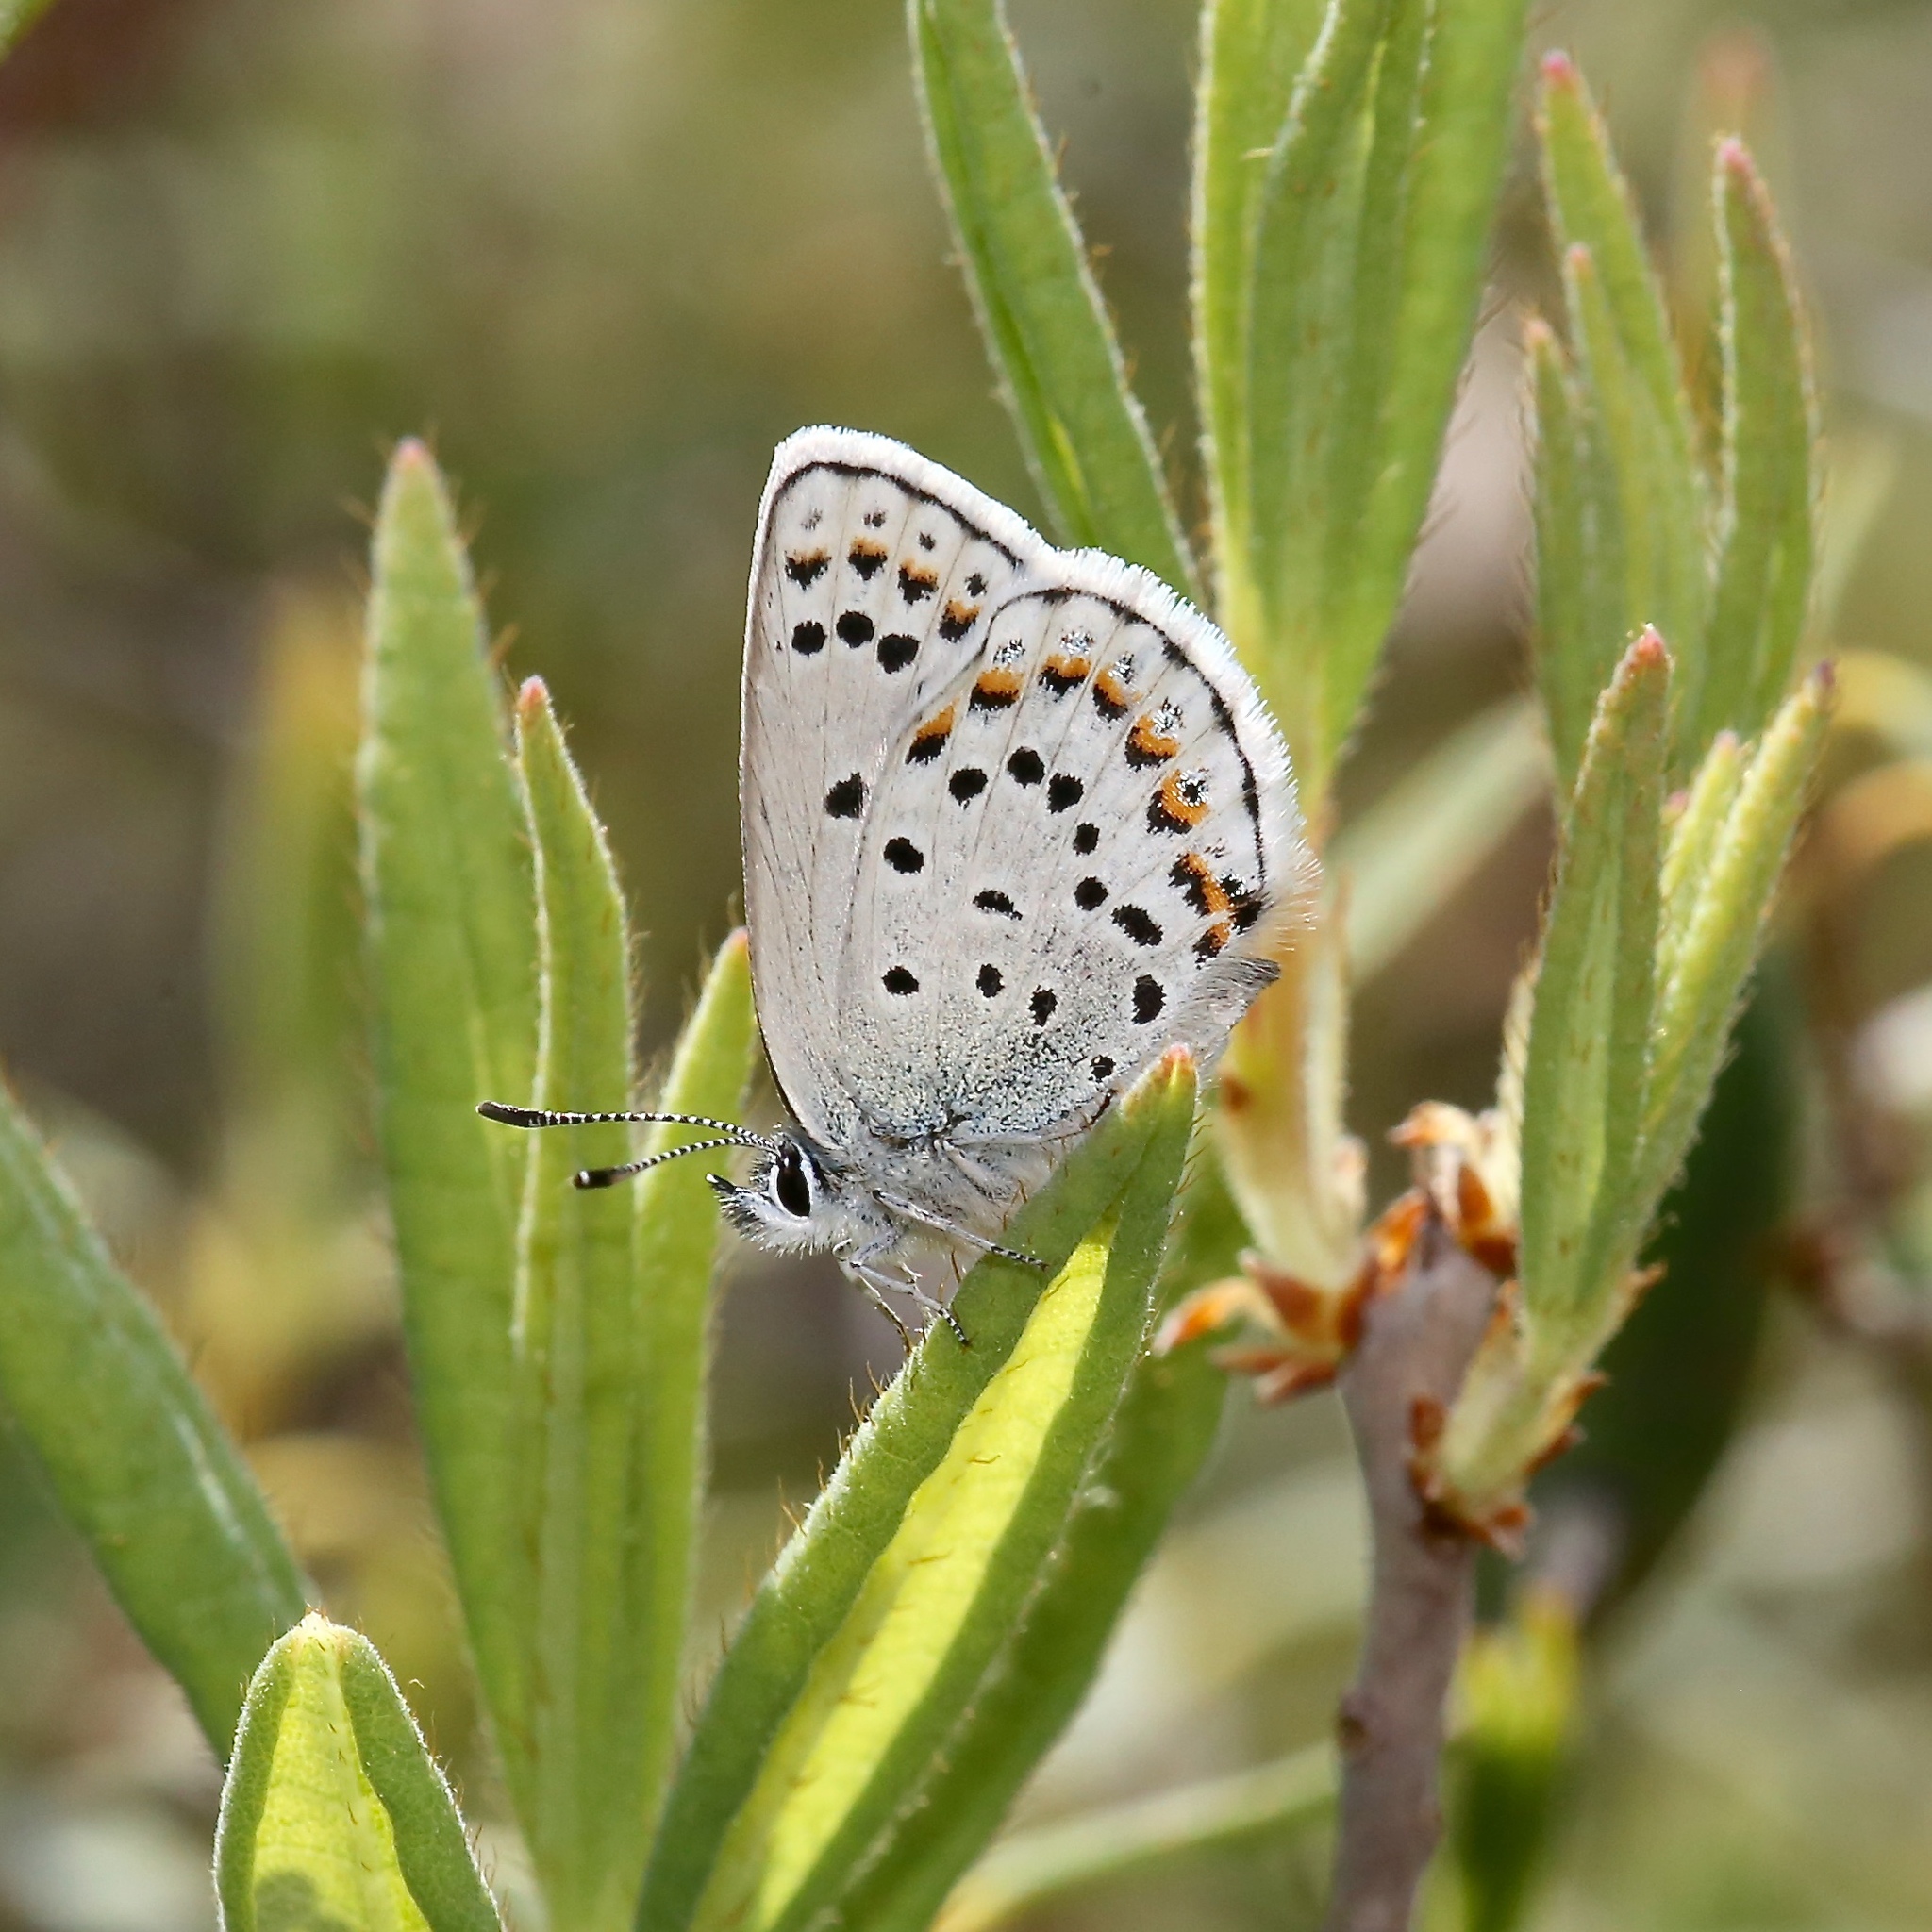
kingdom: Animalia
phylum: Arthropoda
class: Insecta
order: Lepidoptera
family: Lycaenidae
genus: Lycaeides
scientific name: Lycaeides idas
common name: Northern blue
